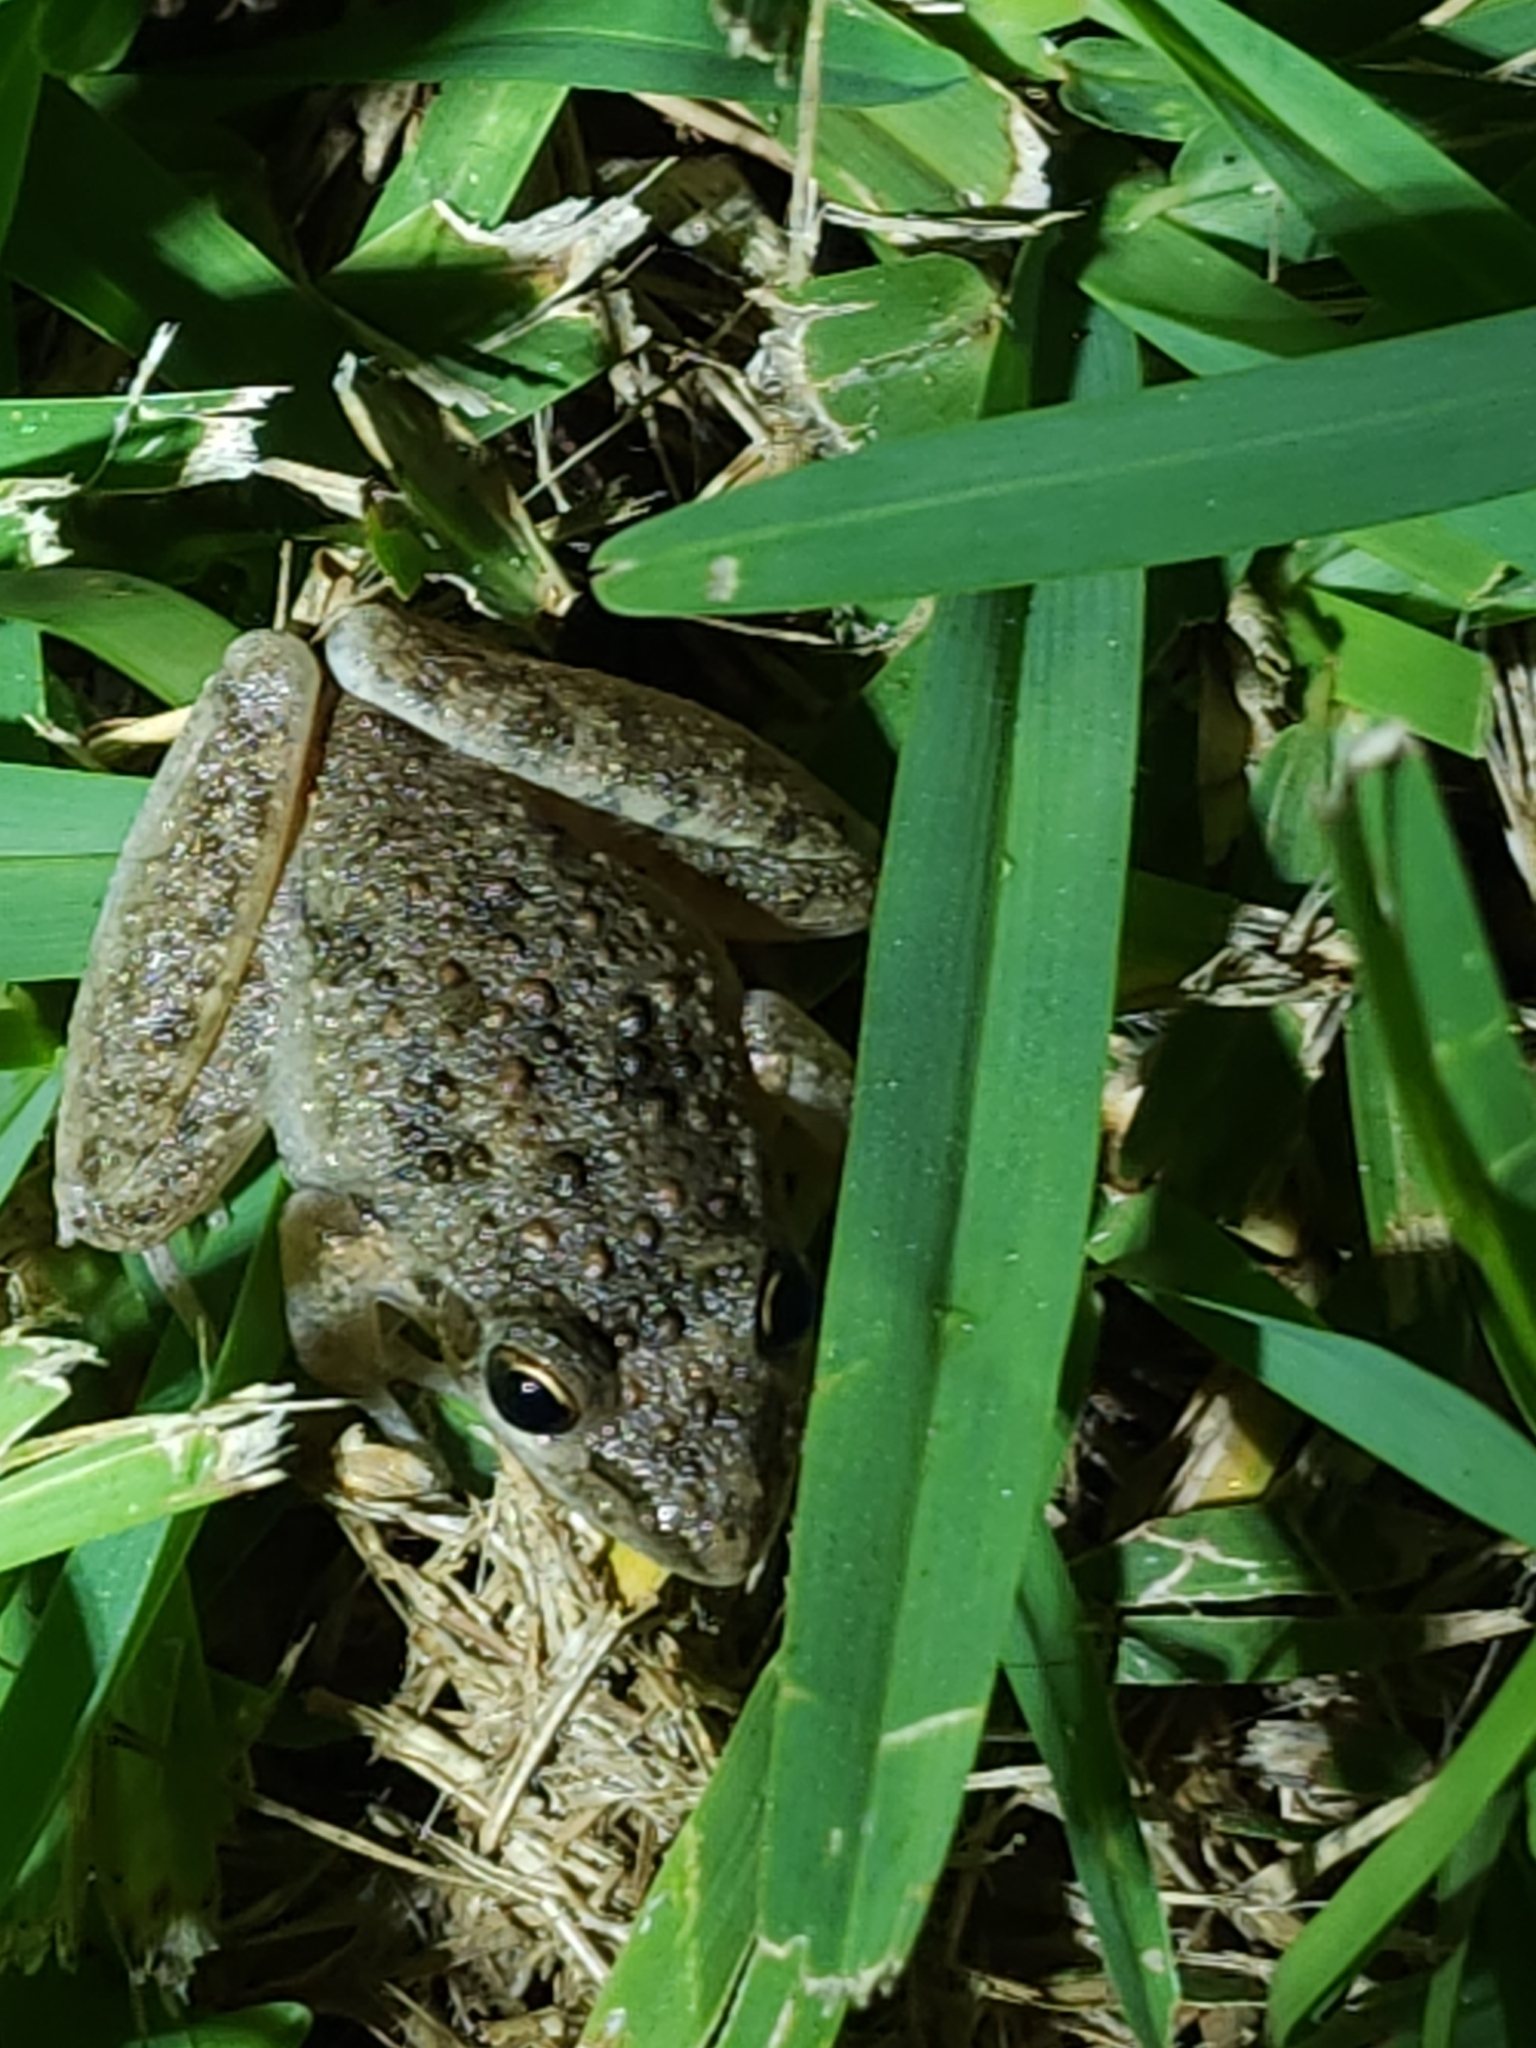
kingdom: Animalia
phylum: Chordata
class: Amphibia
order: Anura
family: Pelodryadidae
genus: Litoria
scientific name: Litoria inermis
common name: Bumpy rocket frog
